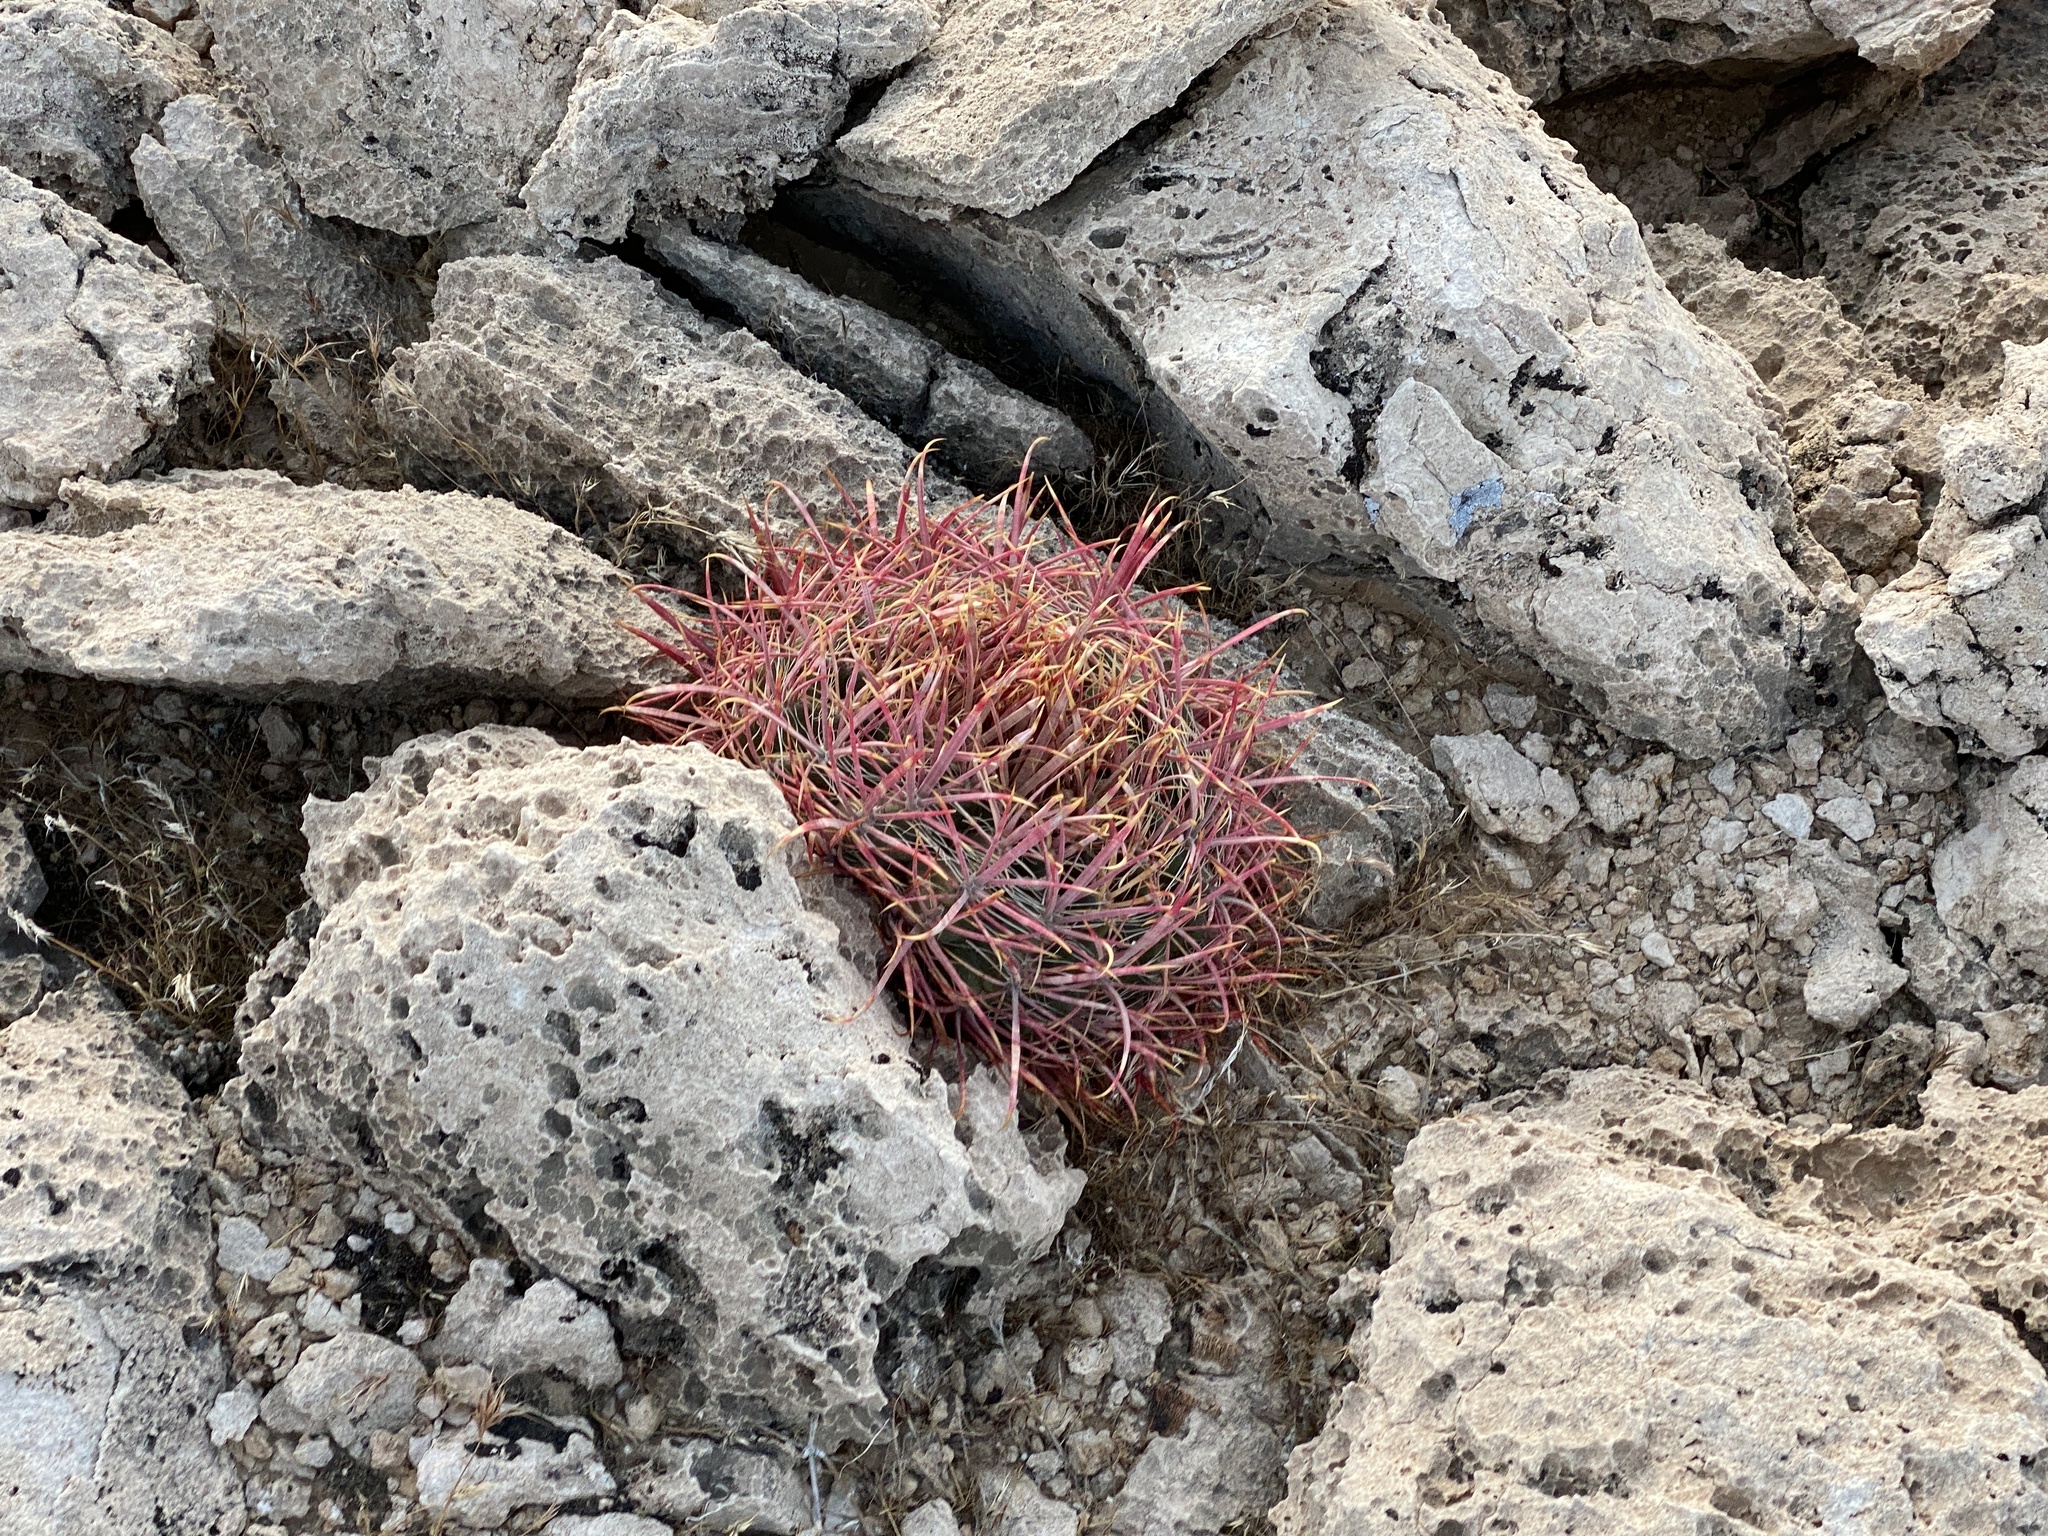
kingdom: Plantae
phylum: Tracheophyta
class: Magnoliopsida
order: Caryophyllales
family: Cactaceae
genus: Ferocactus
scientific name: Ferocactus cylindraceus
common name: California barrel cactus
